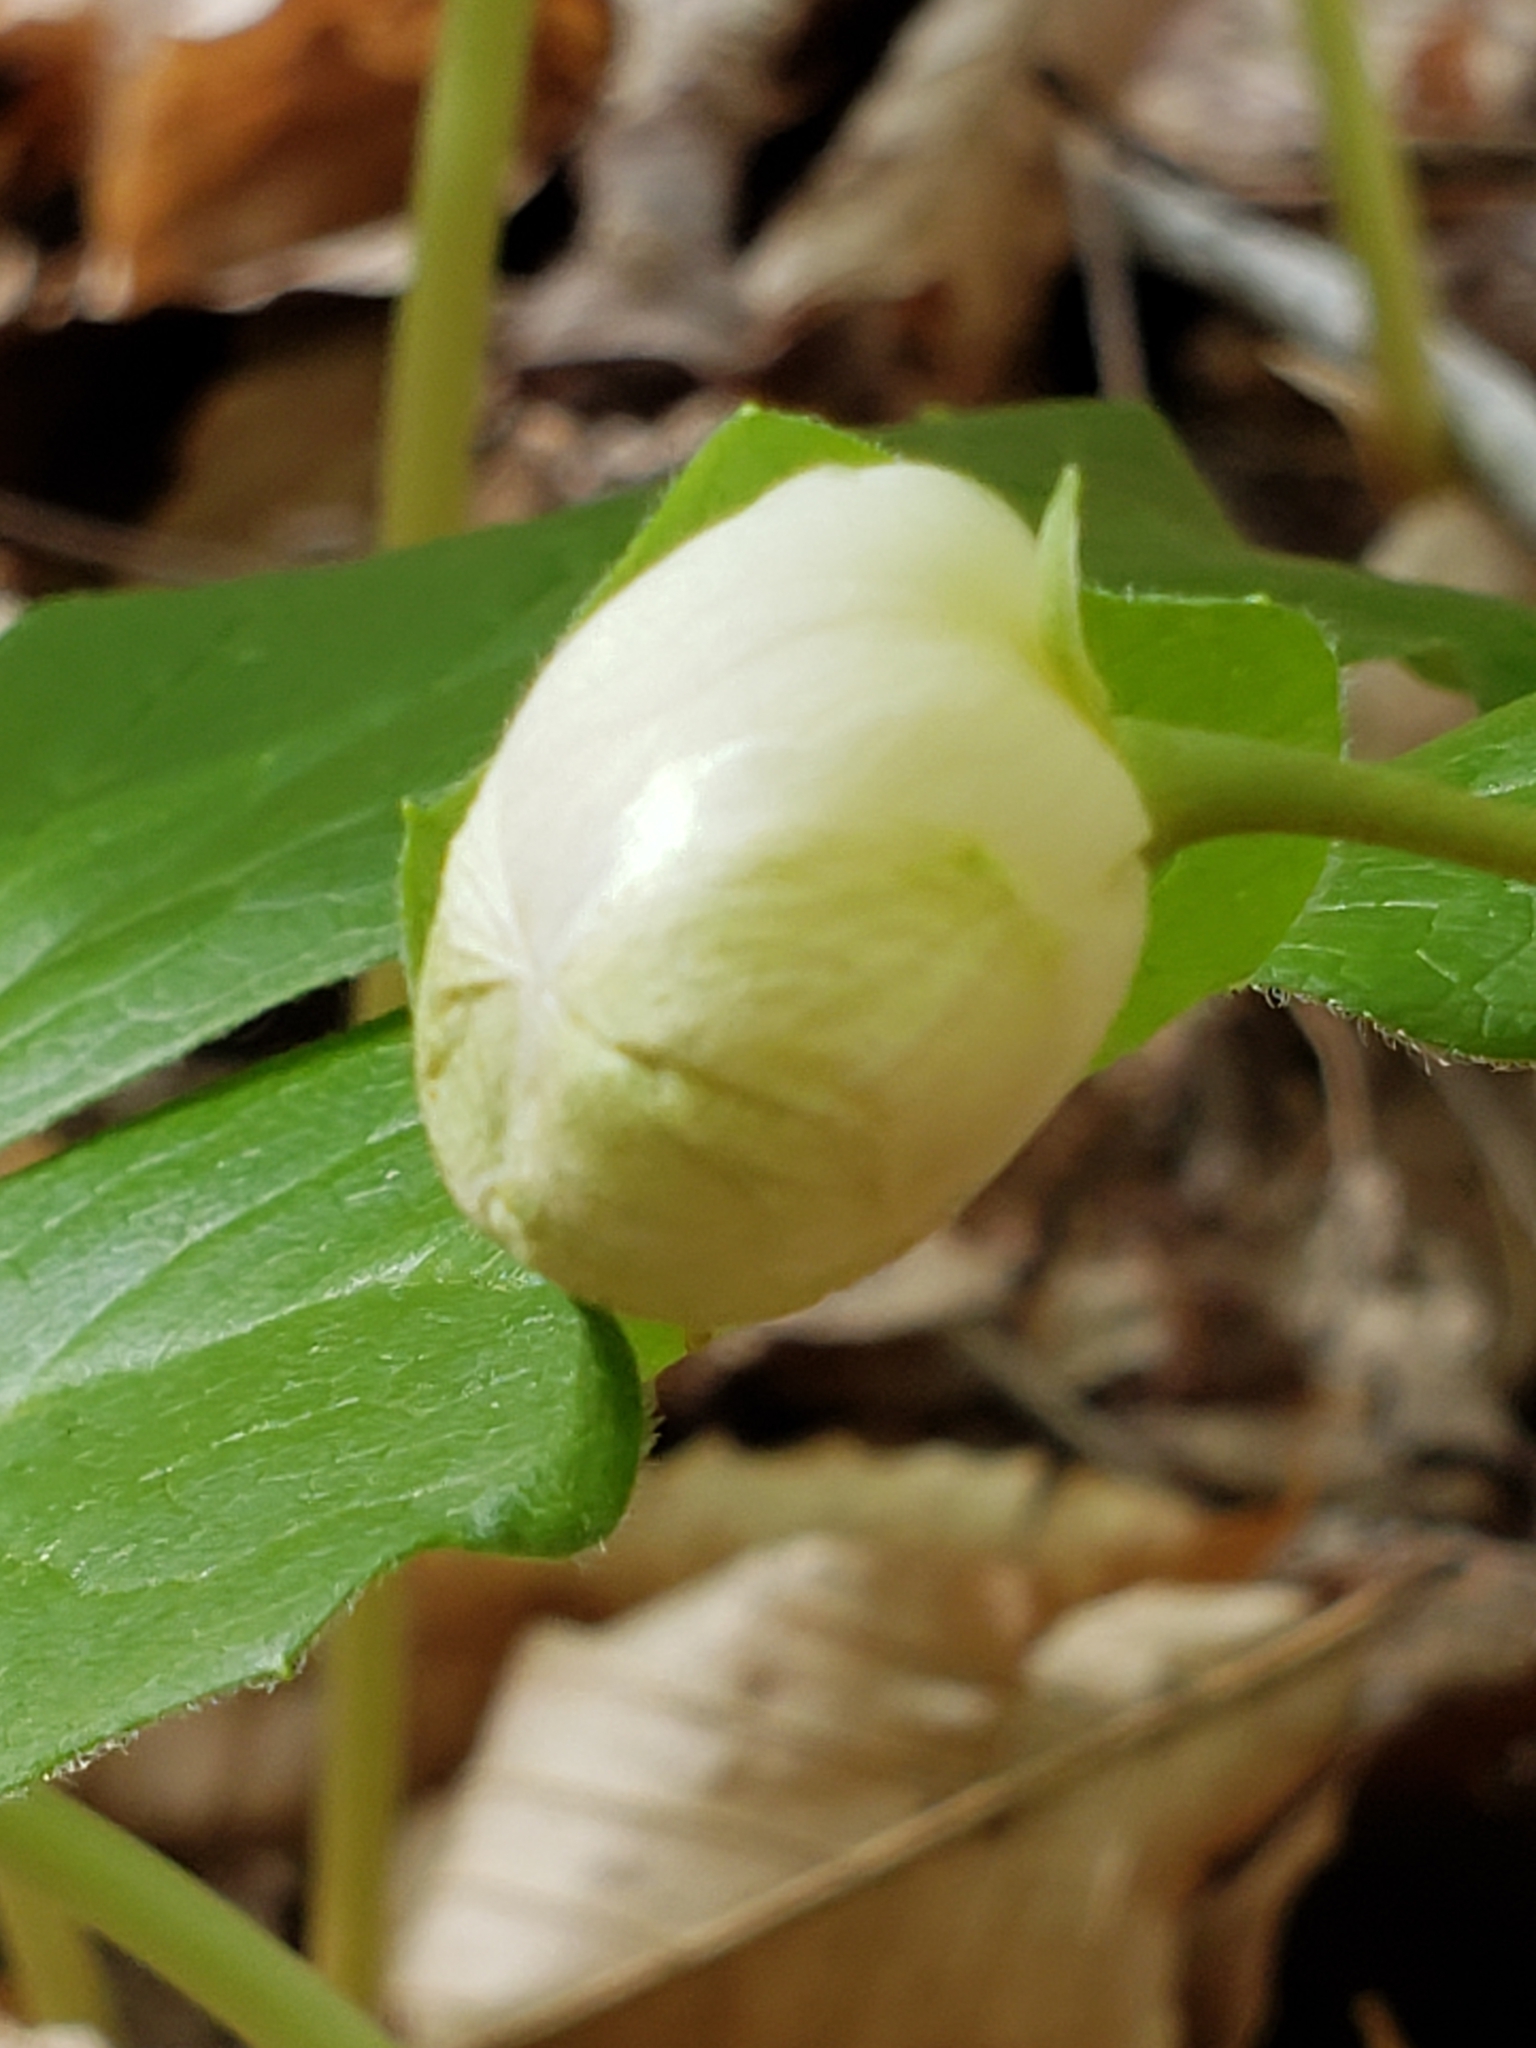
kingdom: Plantae
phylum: Tracheophyta
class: Magnoliopsida
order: Ranunculales
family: Berberidaceae
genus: Podophyllum
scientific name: Podophyllum peltatum
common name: Wild mandrake
